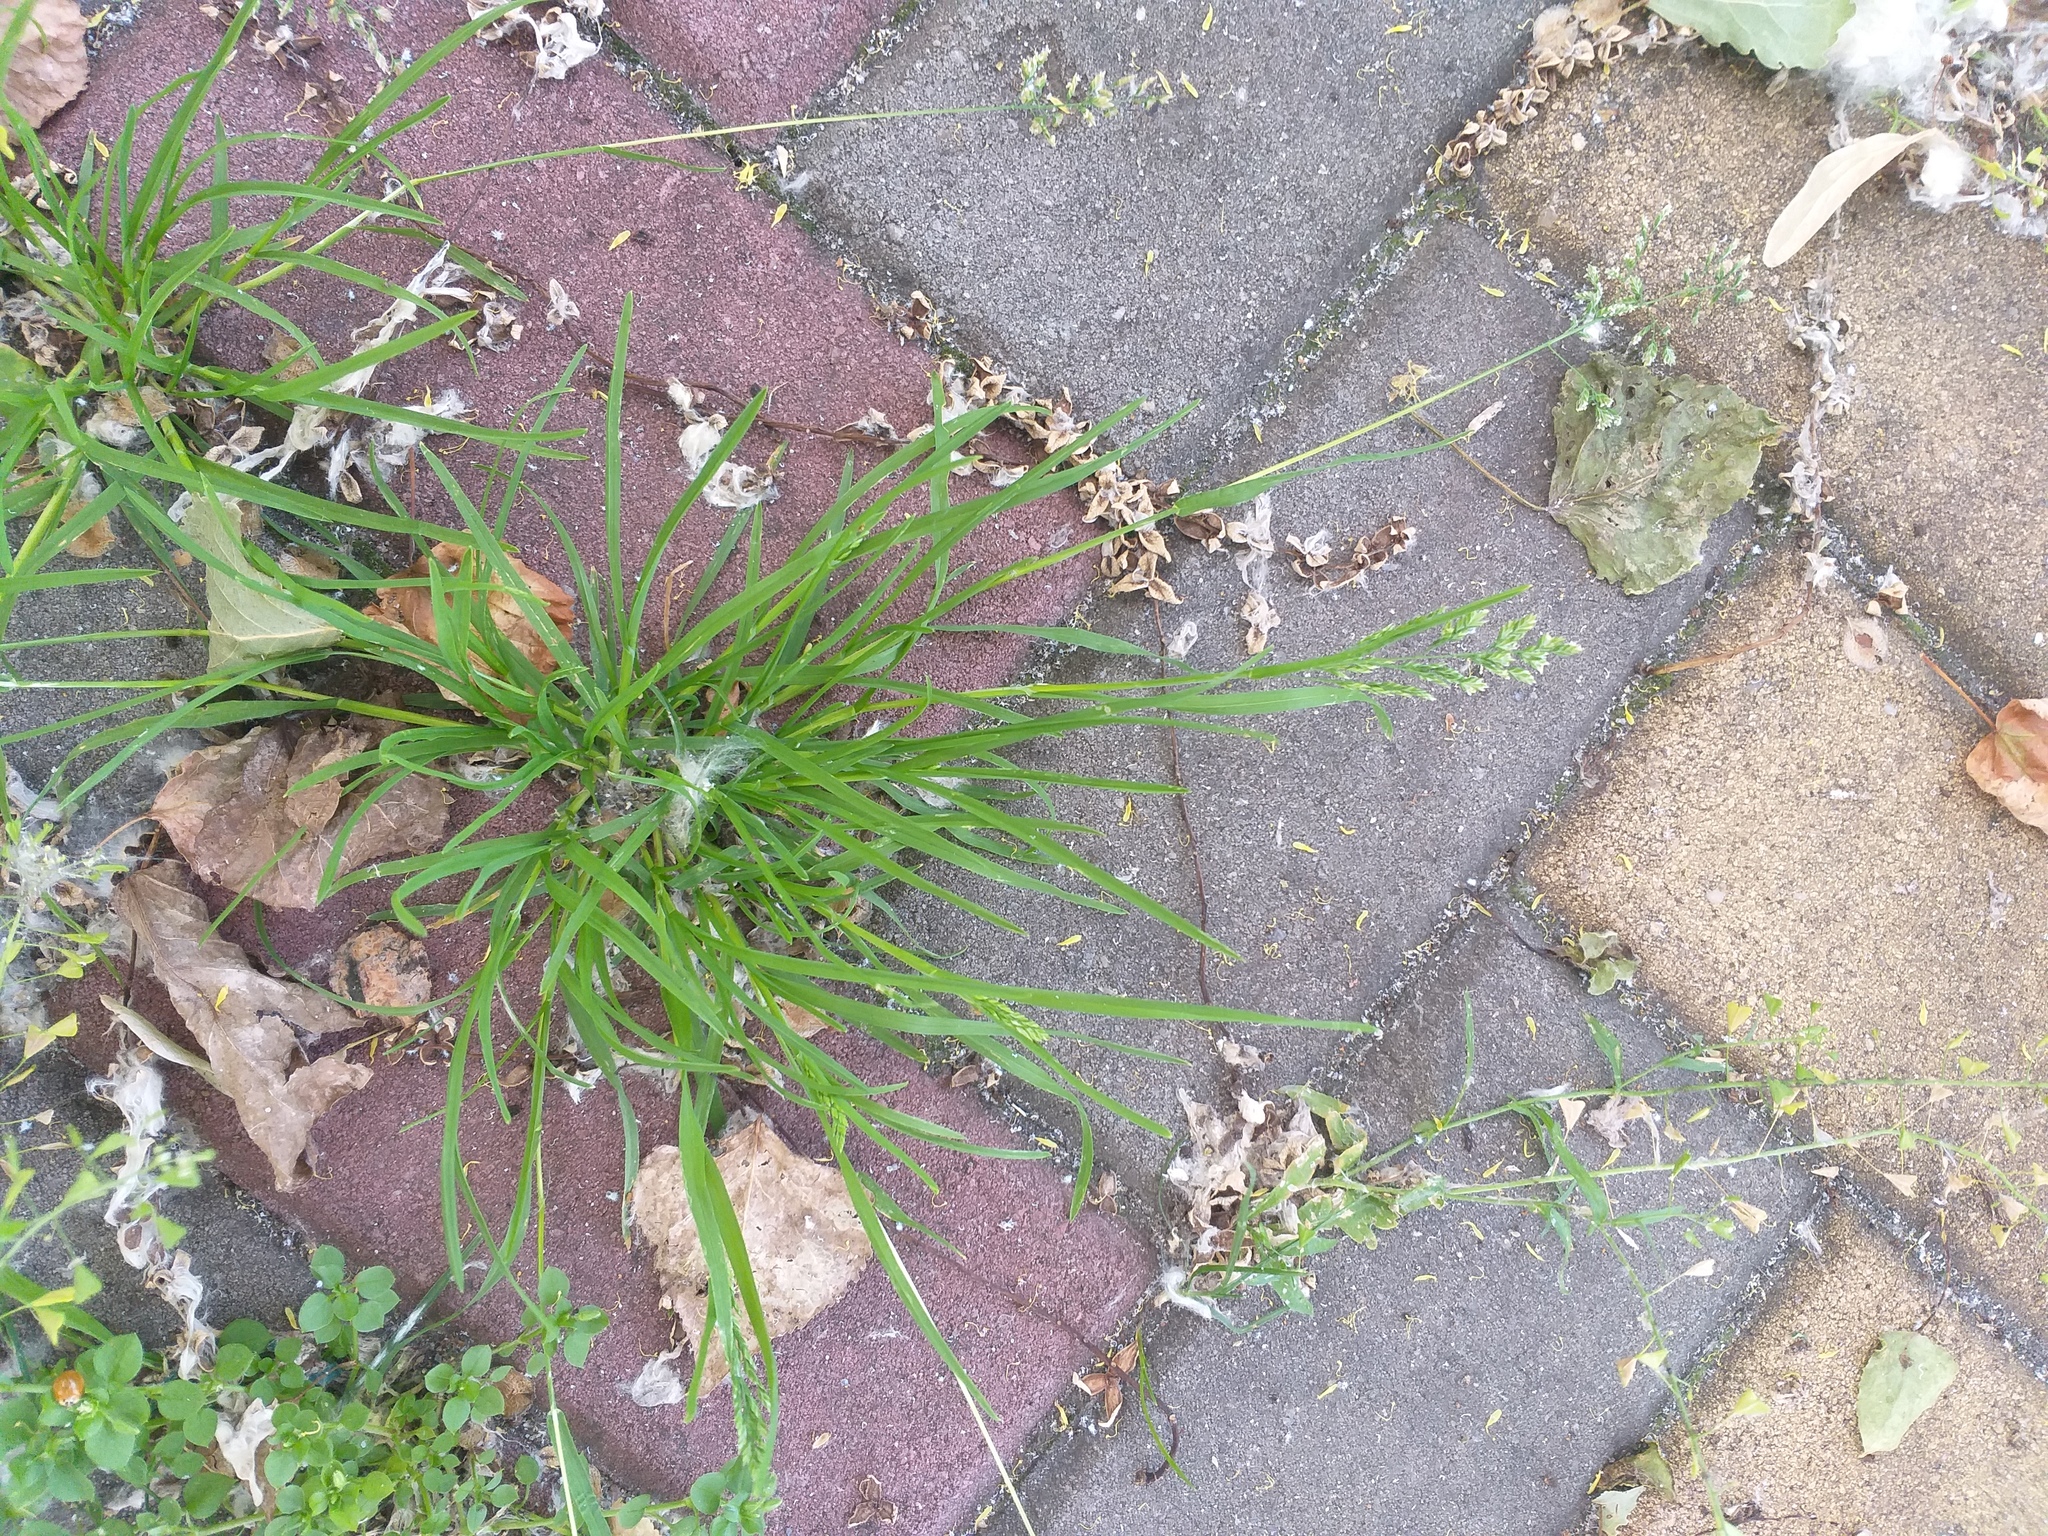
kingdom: Plantae
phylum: Tracheophyta
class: Liliopsida
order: Poales
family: Poaceae
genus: Poa
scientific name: Poa annua
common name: Annual bluegrass
